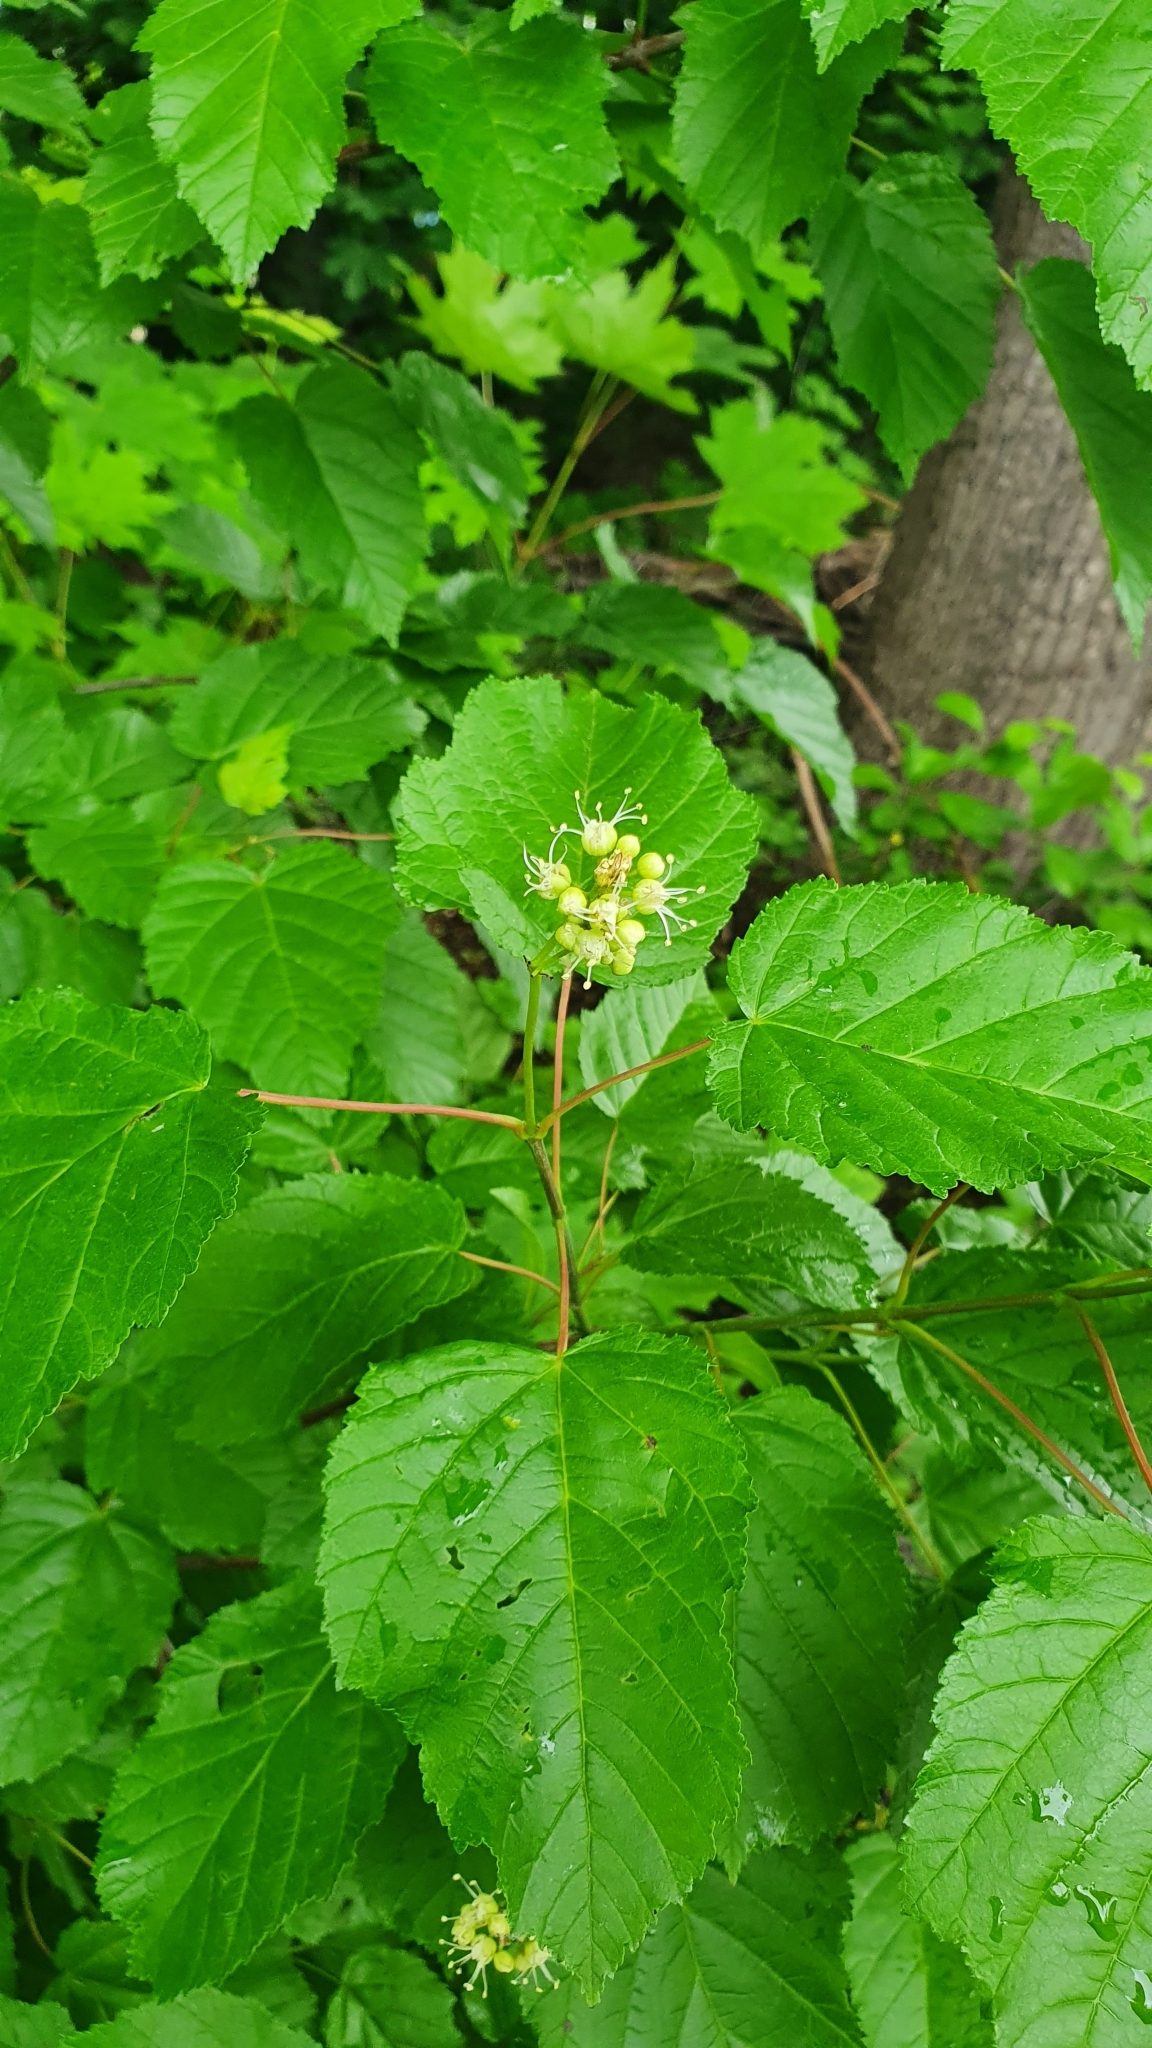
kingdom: Plantae
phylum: Tracheophyta
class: Magnoliopsida
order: Sapindales
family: Sapindaceae
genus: Acer
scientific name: Acer tataricum
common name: Tartar maple
